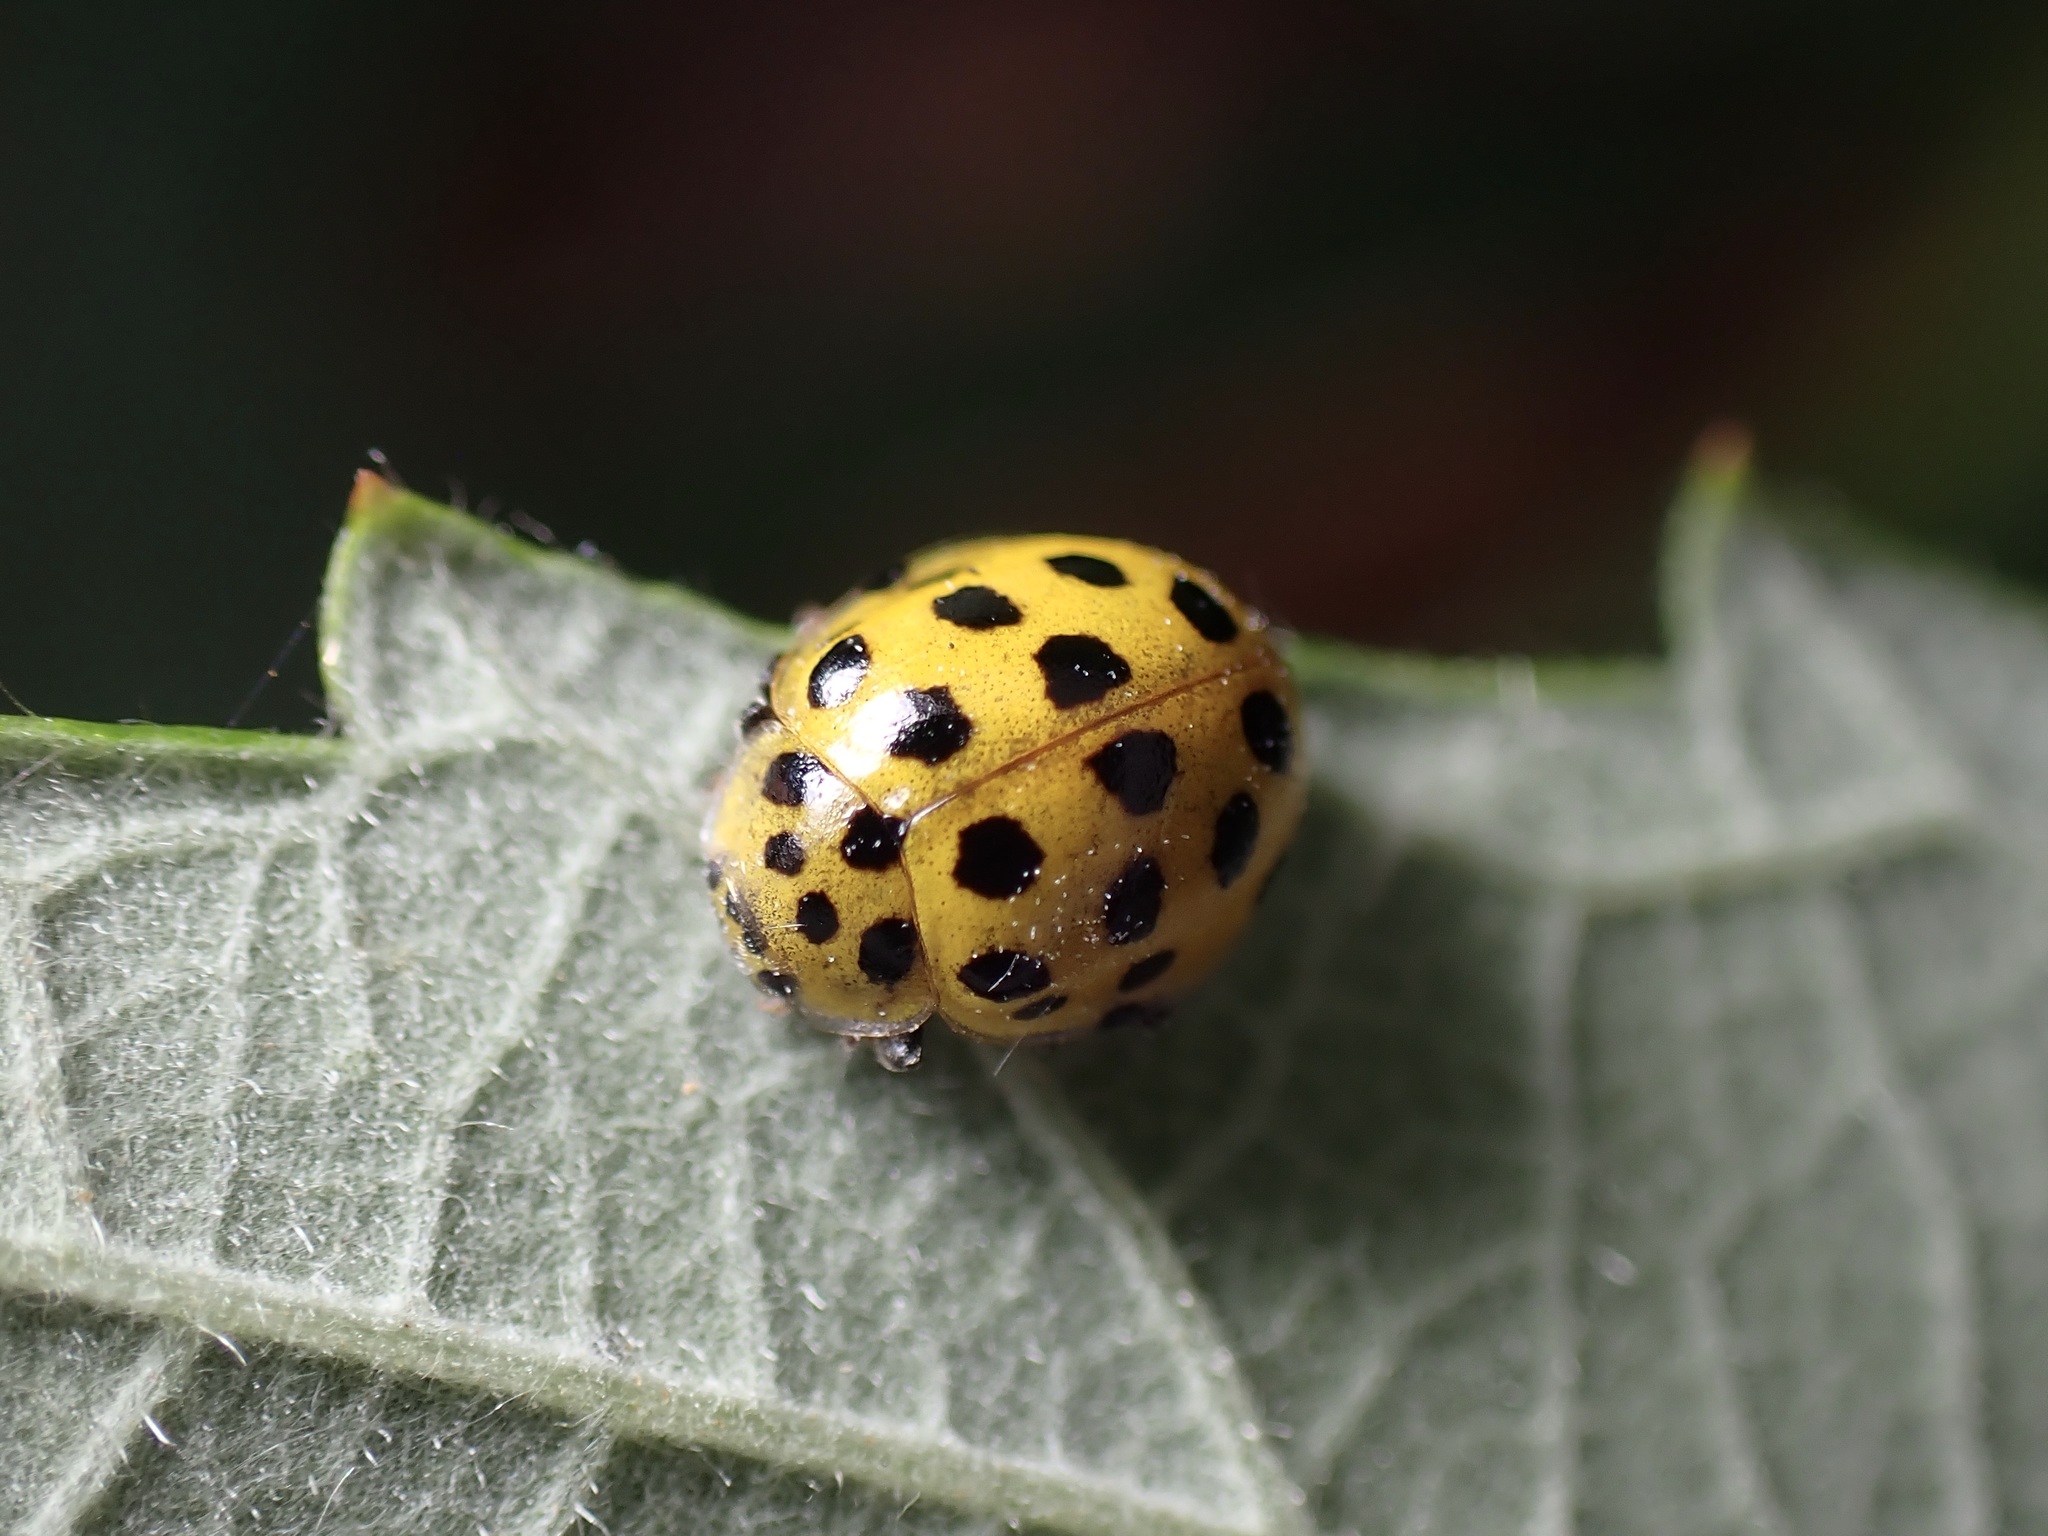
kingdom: Animalia
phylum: Arthropoda
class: Insecta
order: Coleoptera
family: Coccinellidae
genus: Psyllobora
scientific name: Psyllobora vigintiduopunctata
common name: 22-spot ladybird
